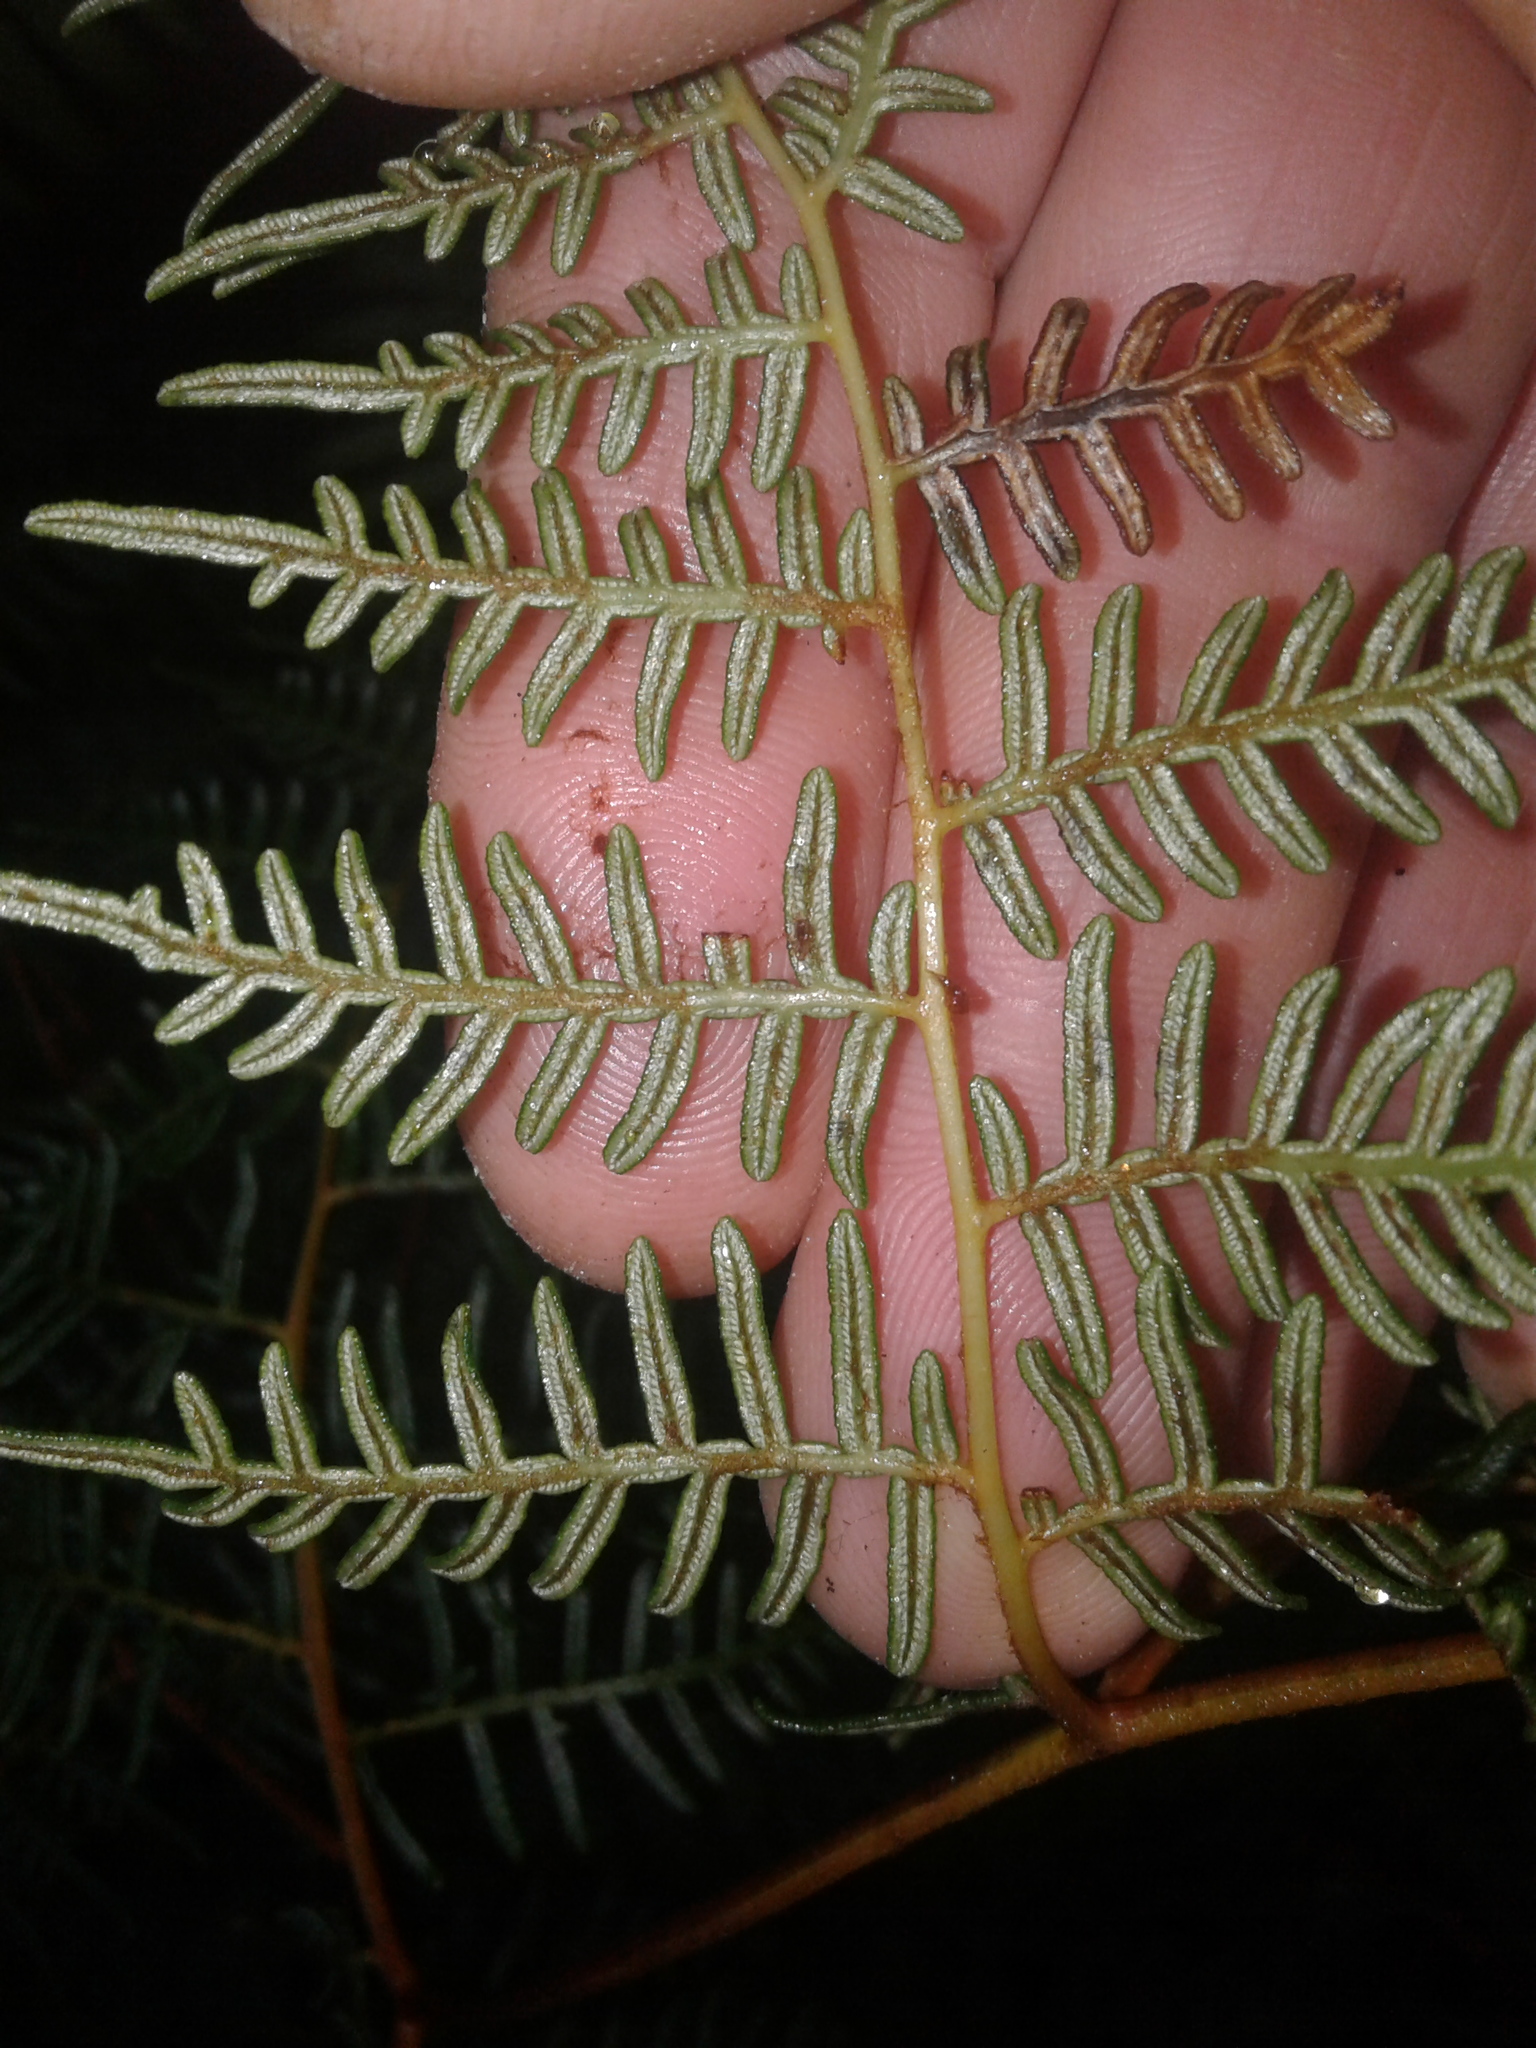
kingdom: Plantae
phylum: Tracheophyta
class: Polypodiopsida
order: Polypodiales
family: Dennstaedtiaceae
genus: Pteridium
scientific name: Pteridium esculentum
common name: Bracken fern
